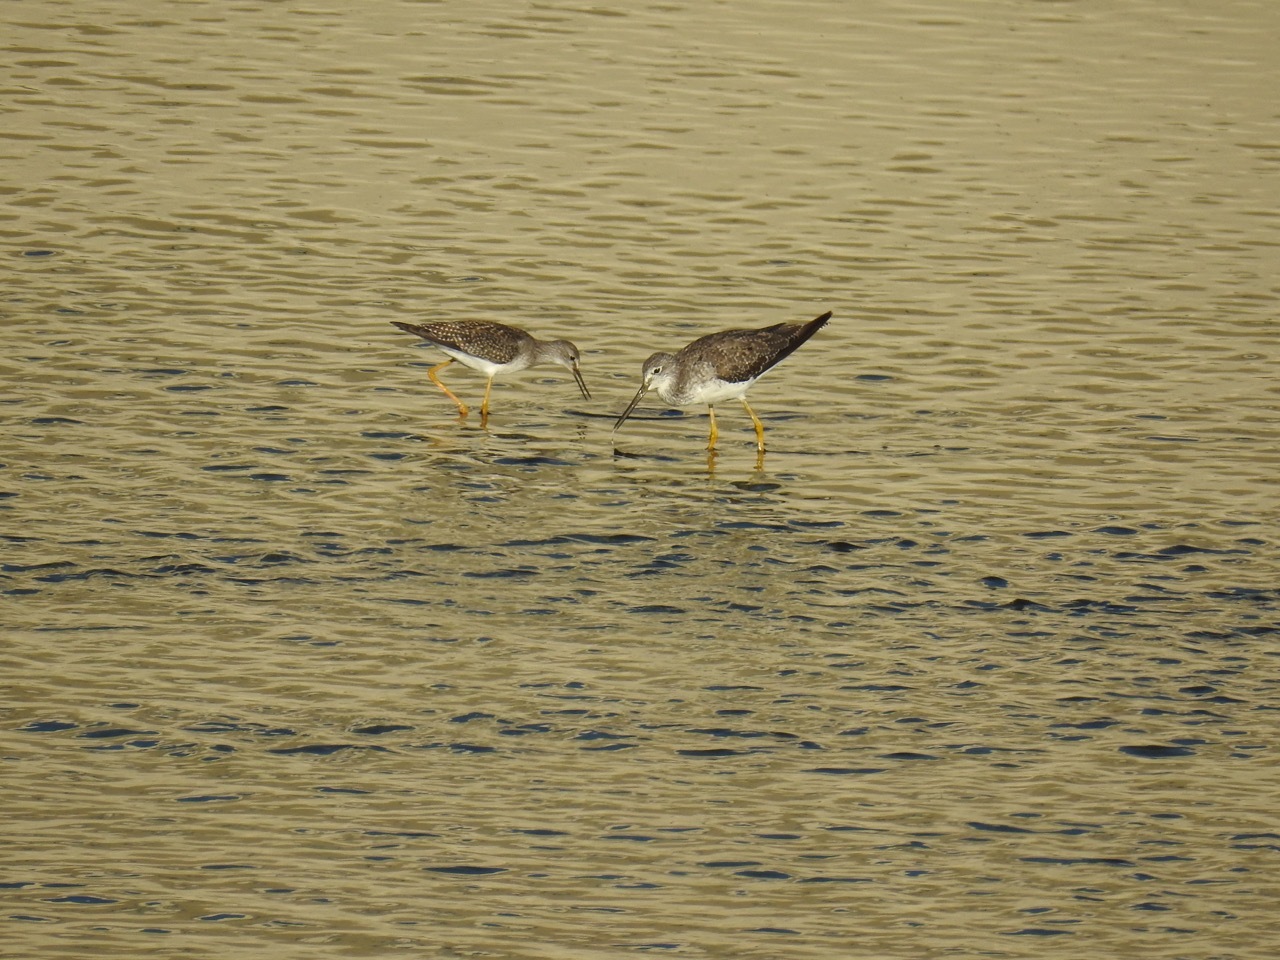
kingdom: Animalia
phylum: Chordata
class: Aves
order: Charadriiformes
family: Scolopacidae
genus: Tringa
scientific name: Tringa melanoleuca
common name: Greater yellowlegs
